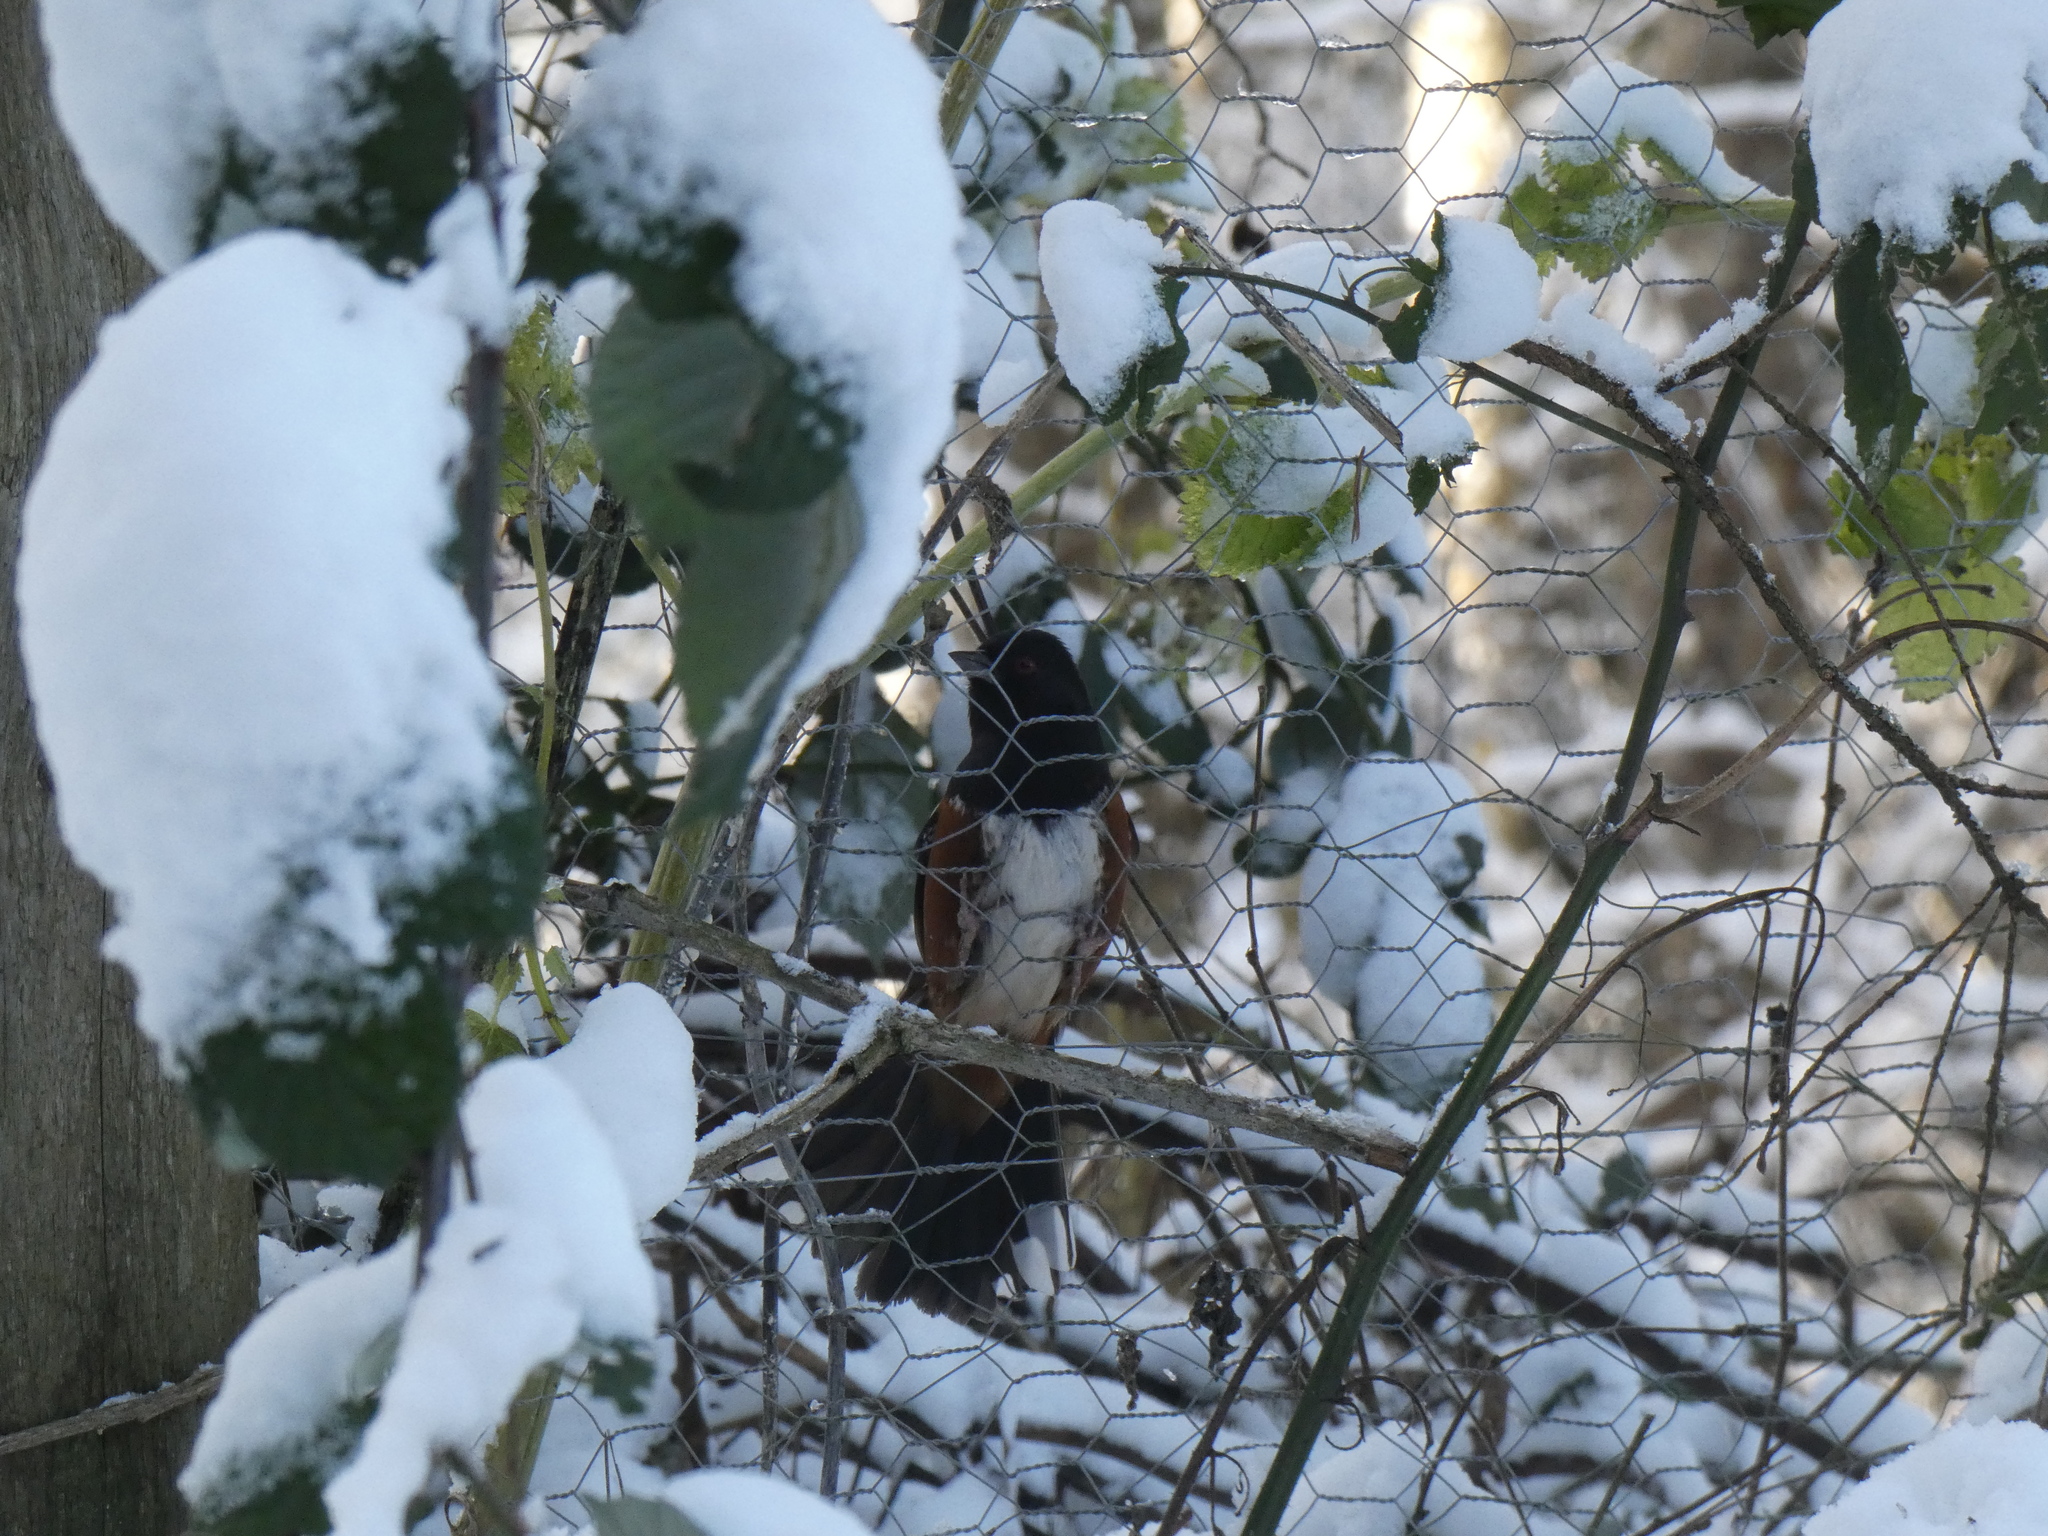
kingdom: Animalia
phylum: Chordata
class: Aves
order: Passeriformes
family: Passerellidae
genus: Pipilo
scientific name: Pipilo maculatus
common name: Spotted towhee
